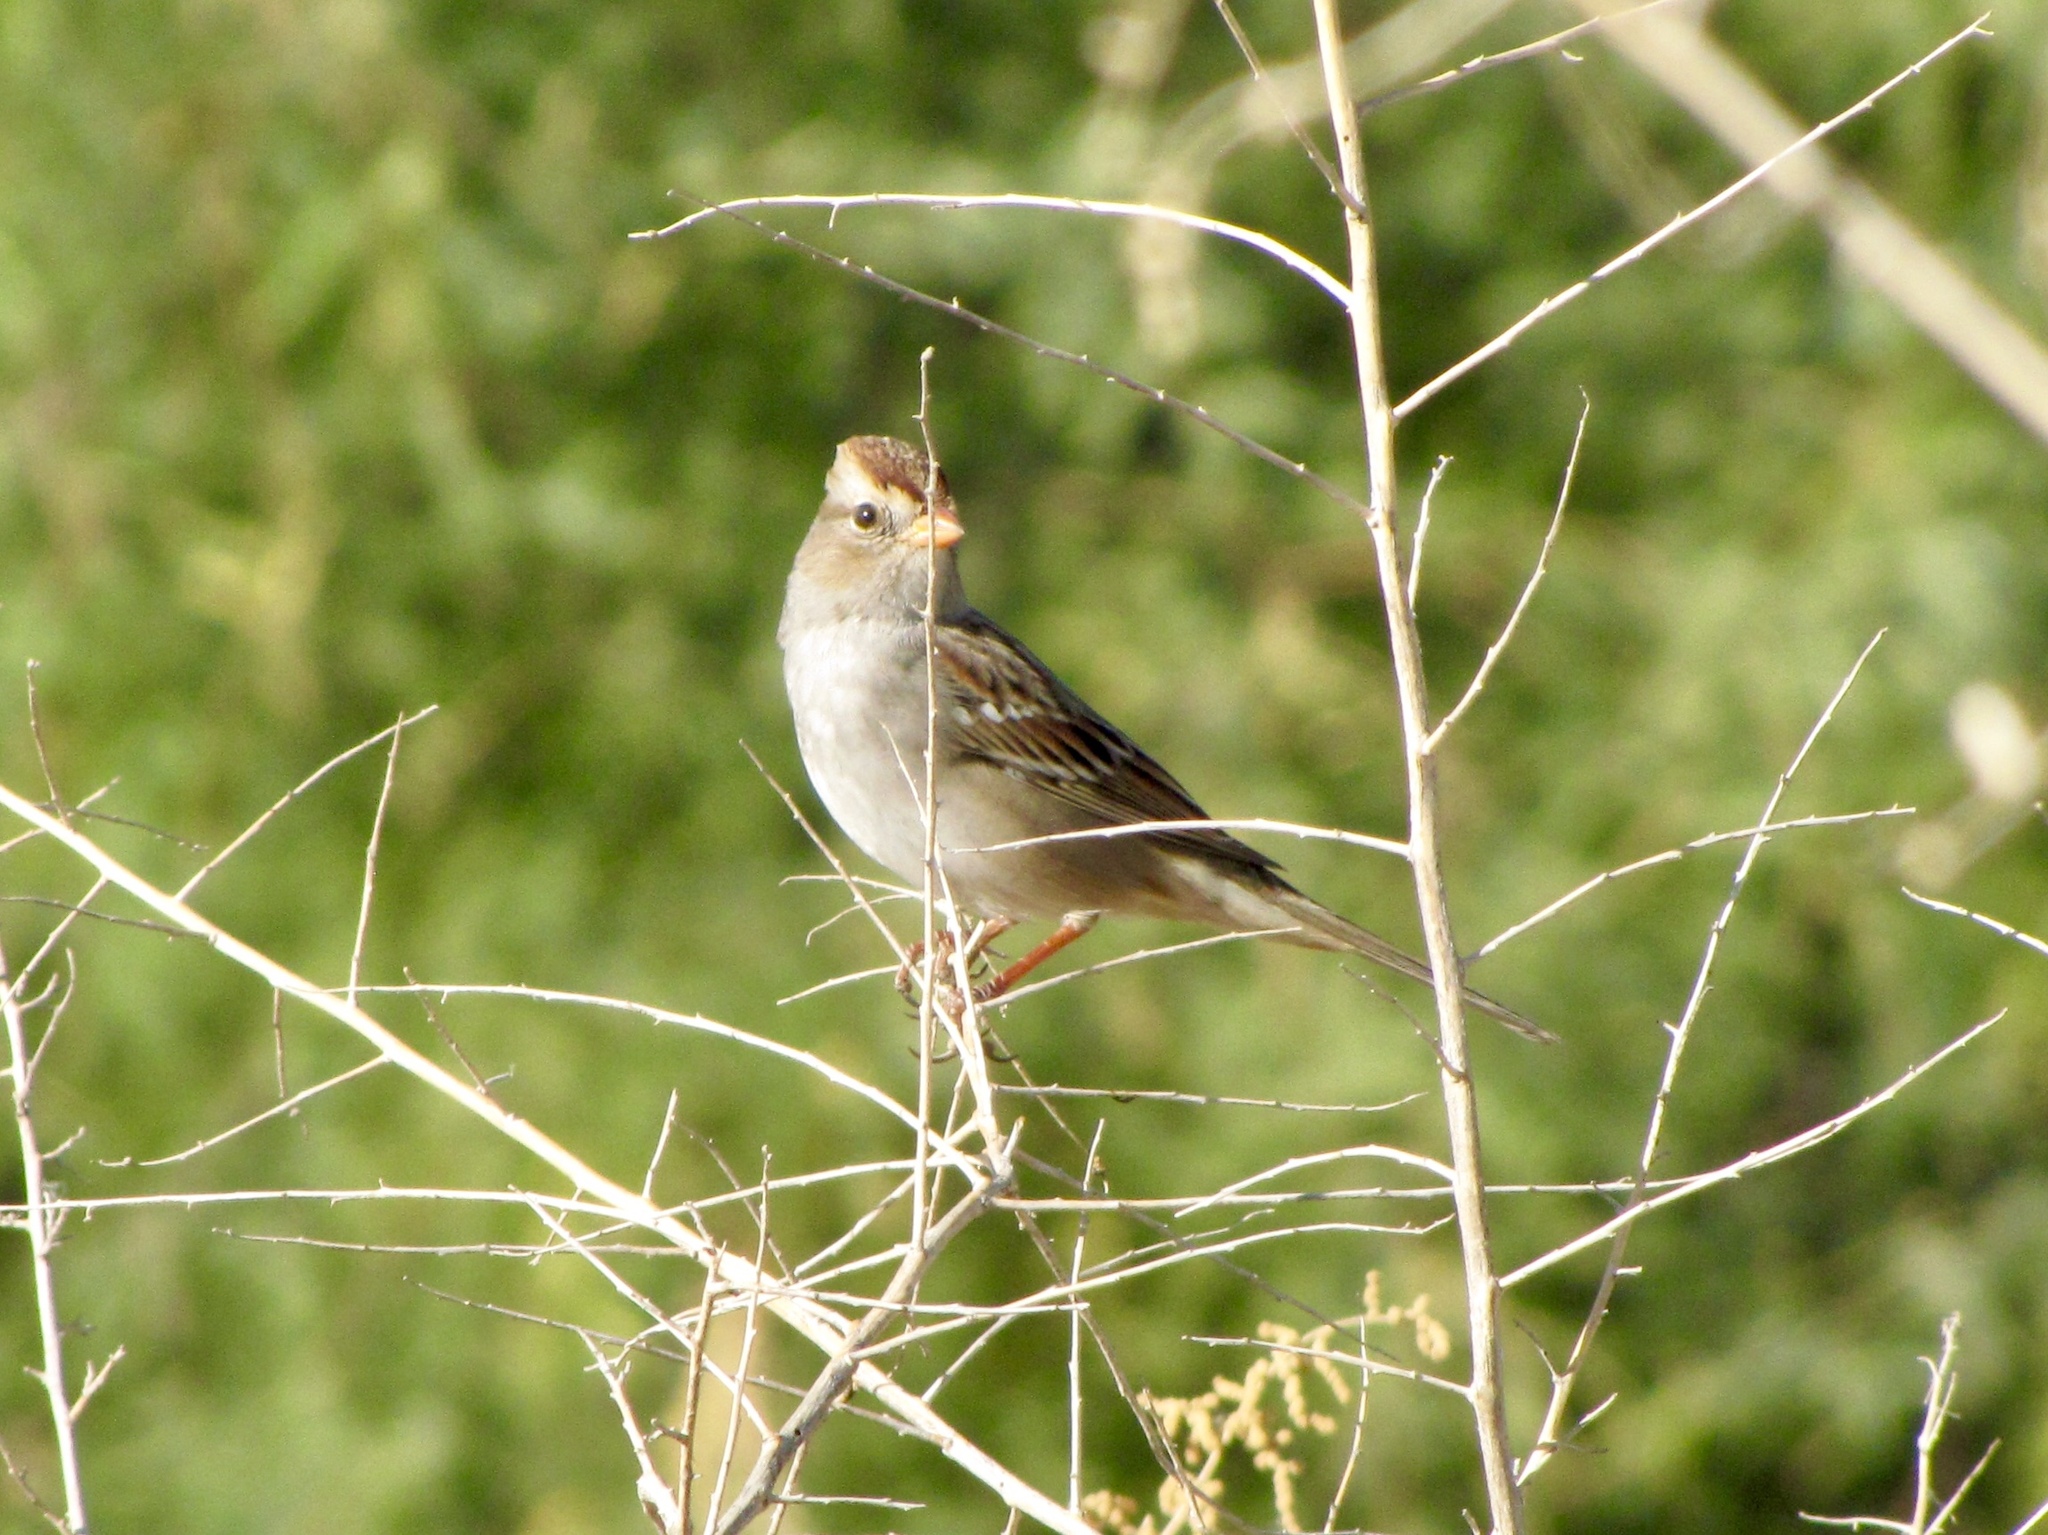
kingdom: Animalia
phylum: Chordata
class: Aves
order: Passeriformes
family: Passerellidae
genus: Zonotrichia
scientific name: Zonotrichia leucophrys
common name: White-crowned sparrow
